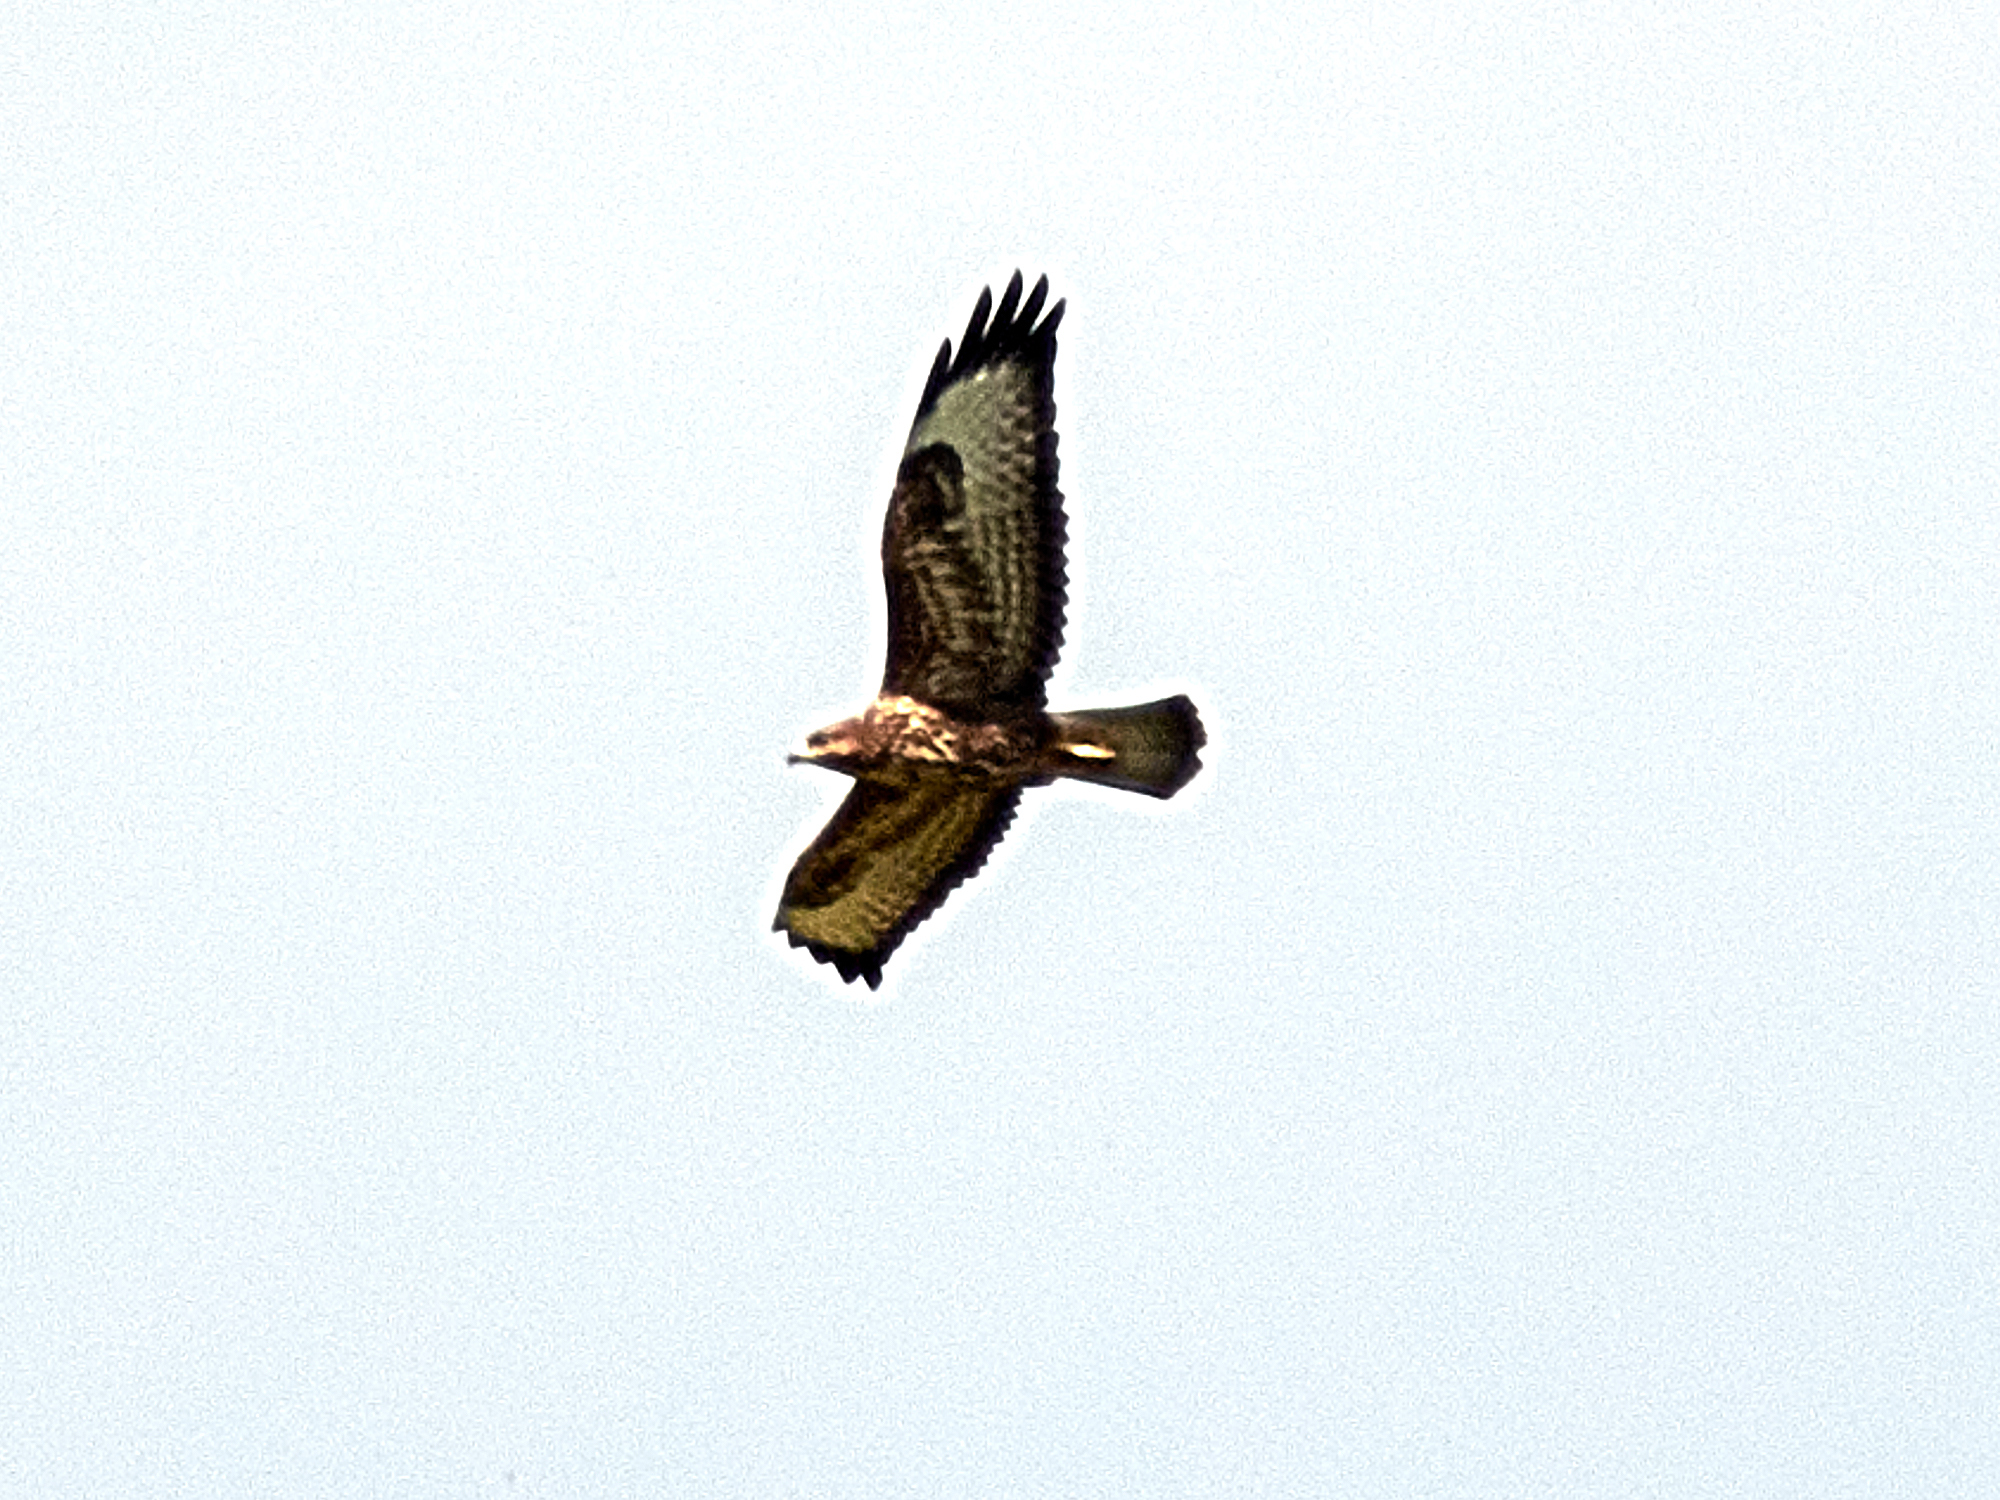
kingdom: Animalia
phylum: Chordata
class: Aves
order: Accipitriformes
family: Accipitridae
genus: Buteo
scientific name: Buteo buteo
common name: Common buzzard
